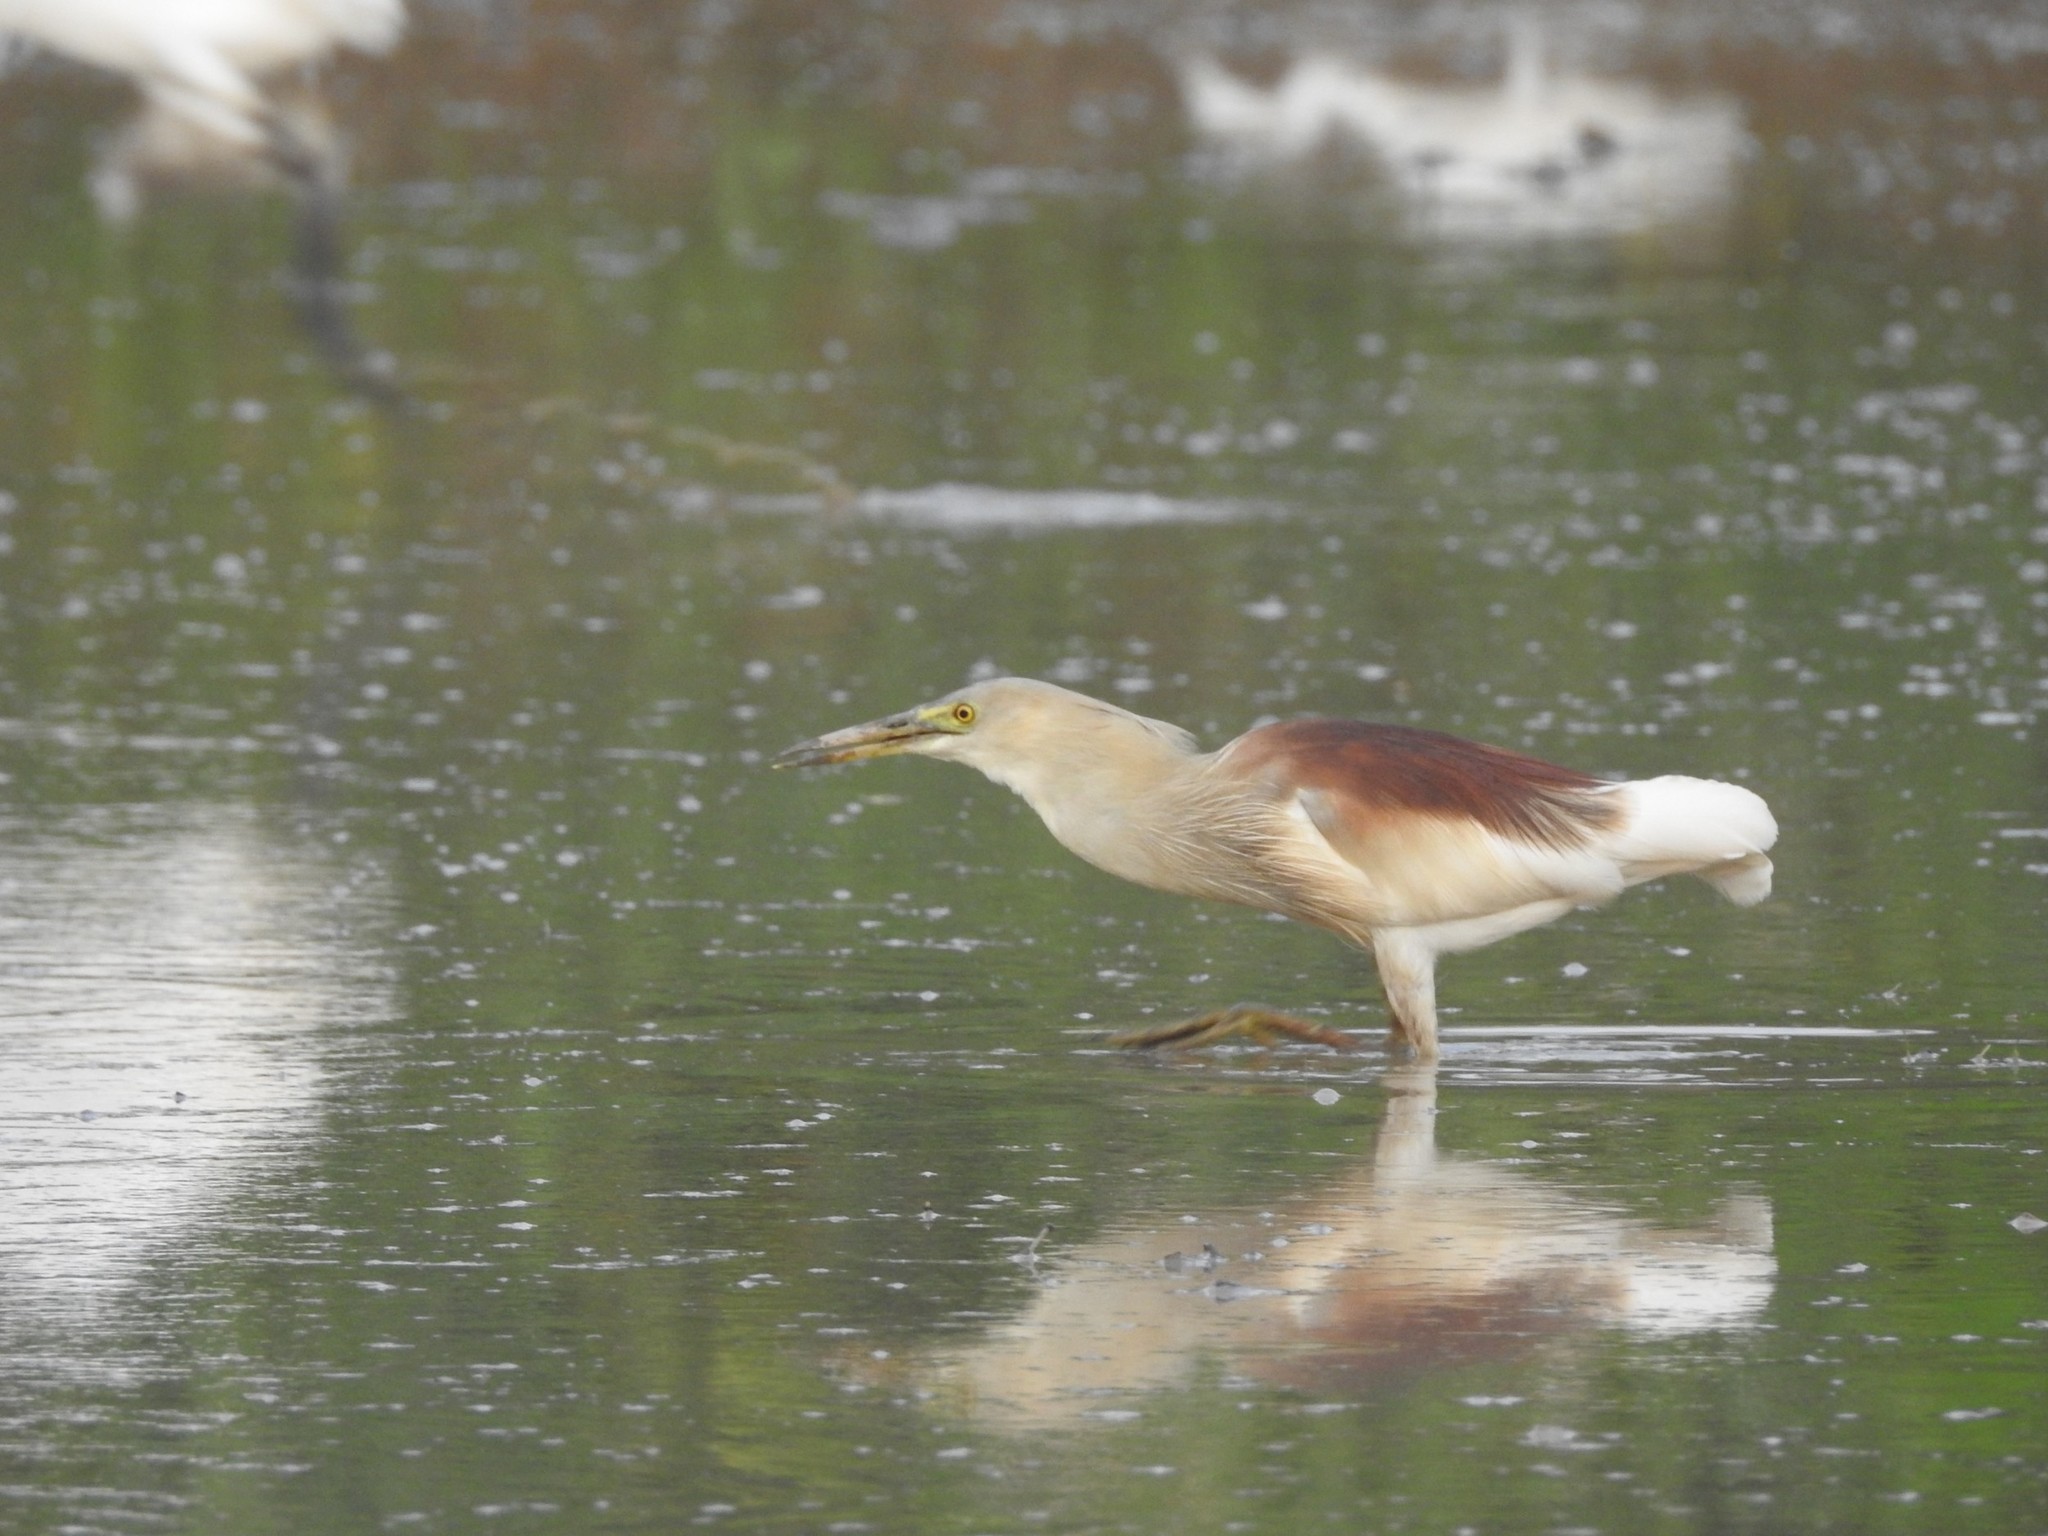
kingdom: Animalia
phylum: Chordata
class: Aves
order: Pelecaniformes
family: Ardeidae
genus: Ardeola
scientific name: Ardeola grayii
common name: Indian pond heron
